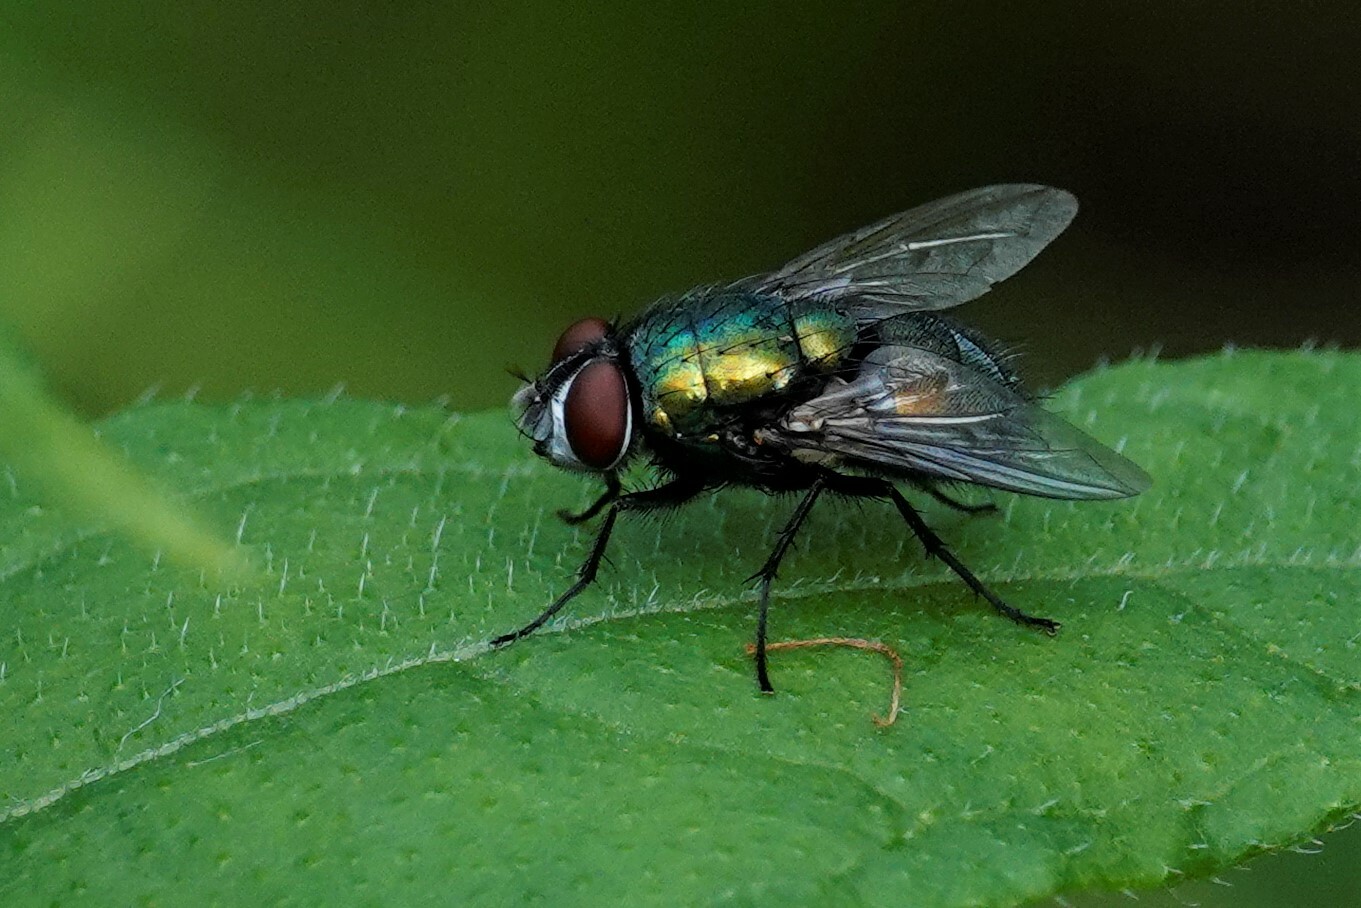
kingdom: Animalia
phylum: Arthropoda
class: Insecta
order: Diptera
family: Calliphoridae
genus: Lucilia
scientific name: Lucilia sericata
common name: Blow fly
